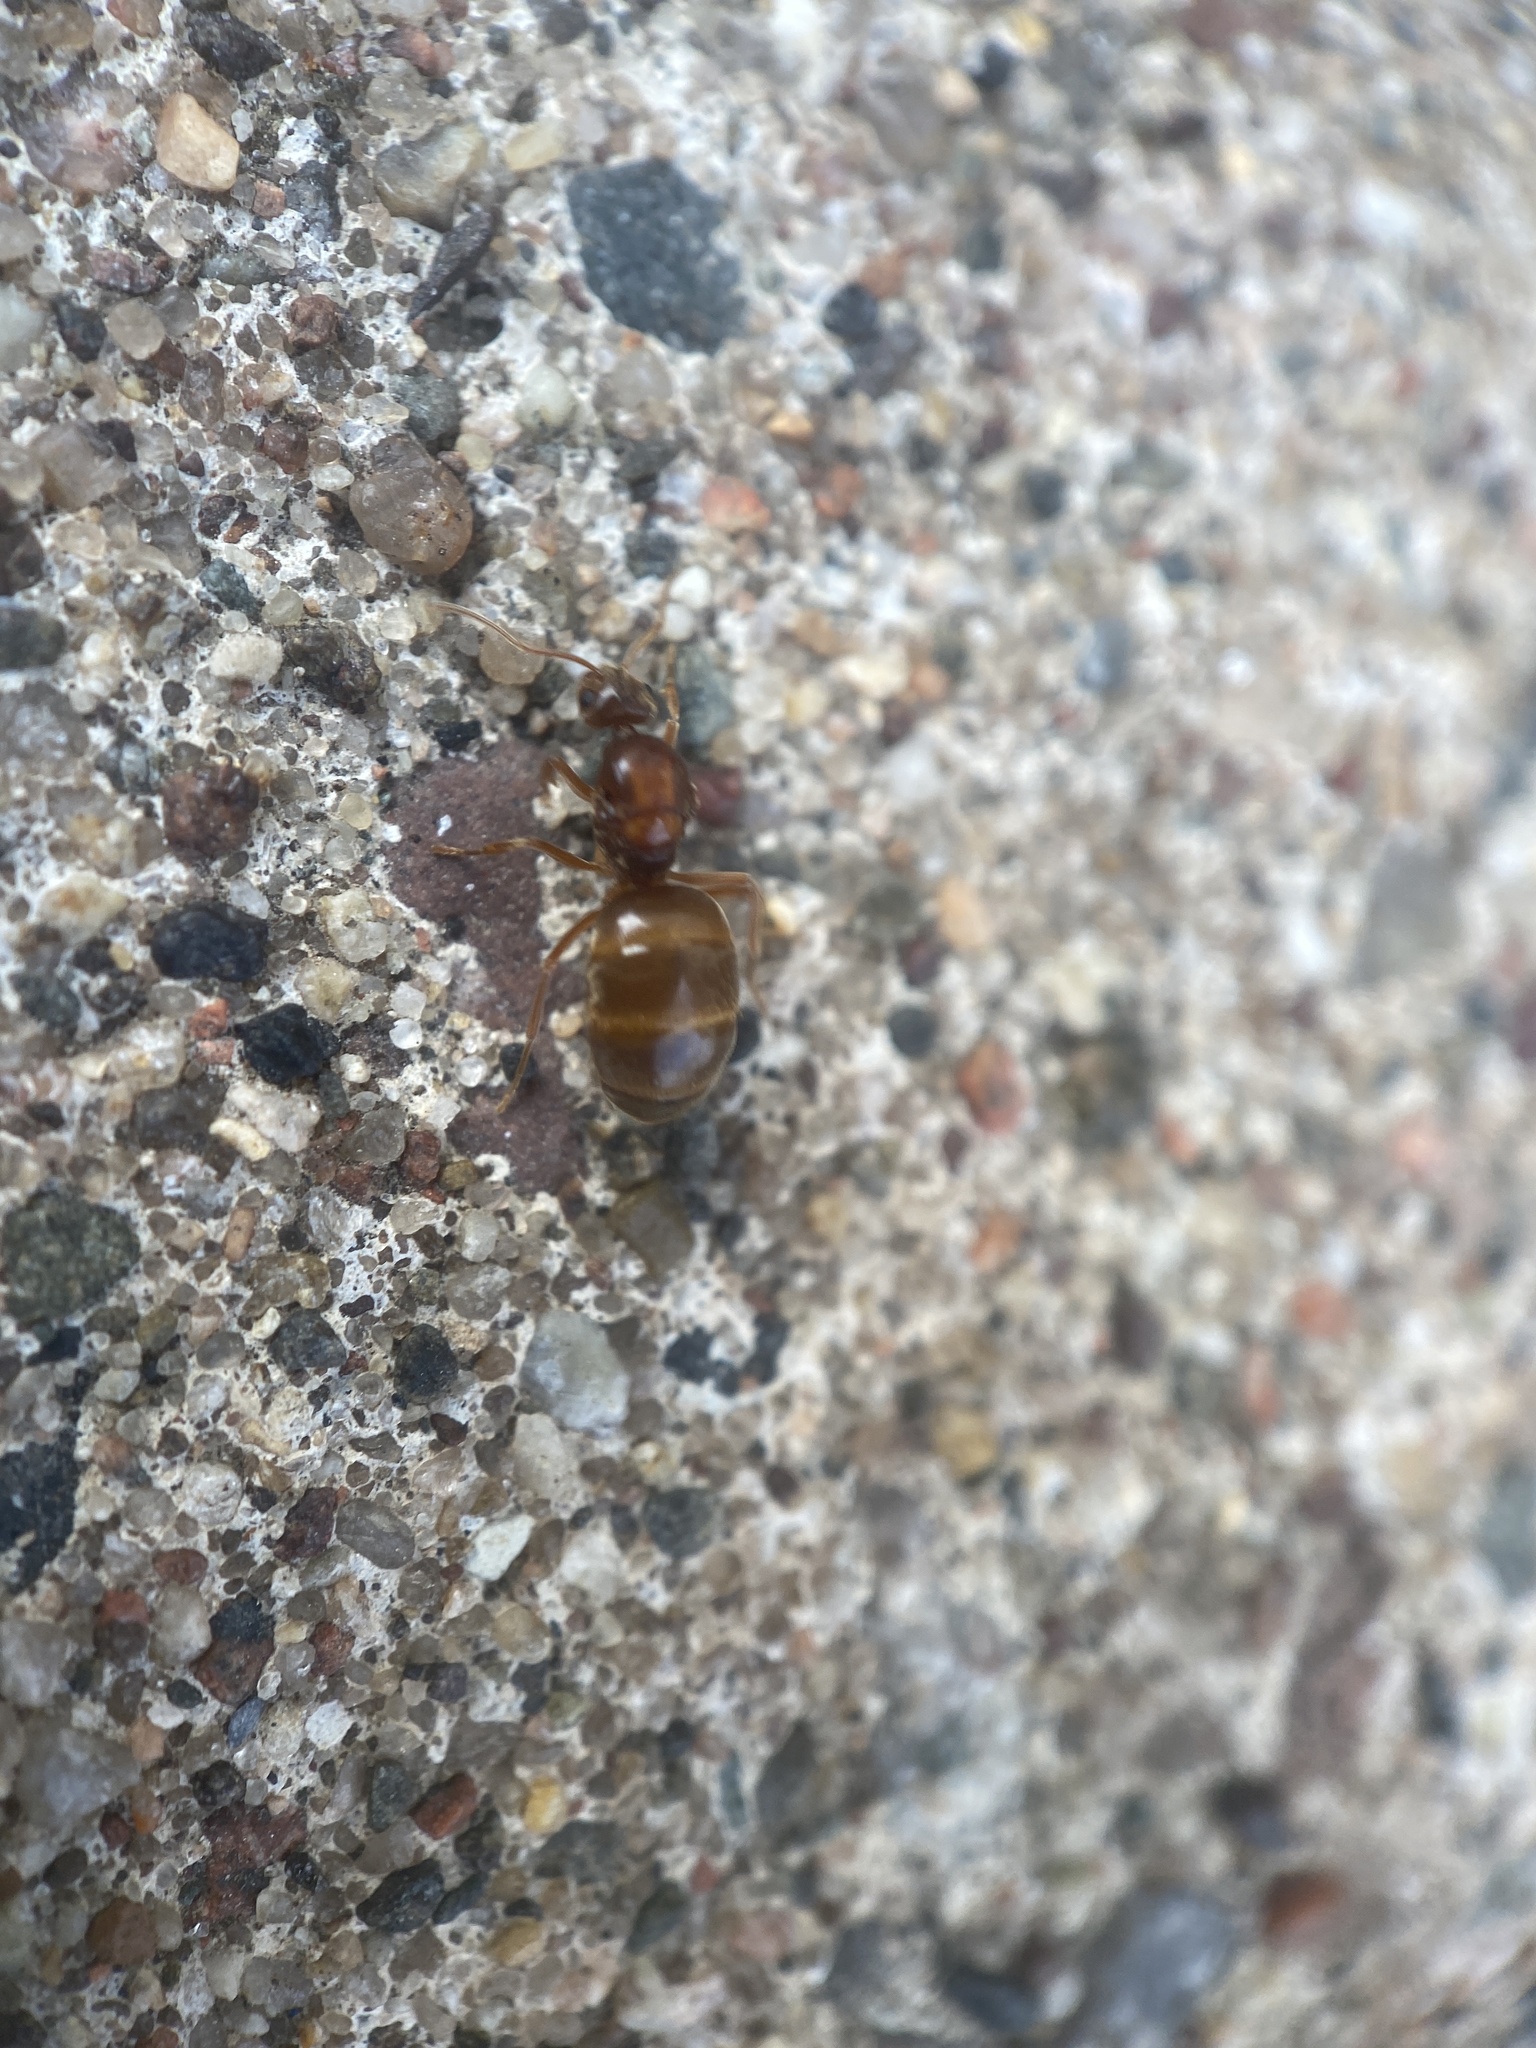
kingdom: Animalia
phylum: Arthropoda
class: Insecta
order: Hymenoptera
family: Formicidae
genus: Prenolepis
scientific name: Prenolepis imparis
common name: Small honey ant
